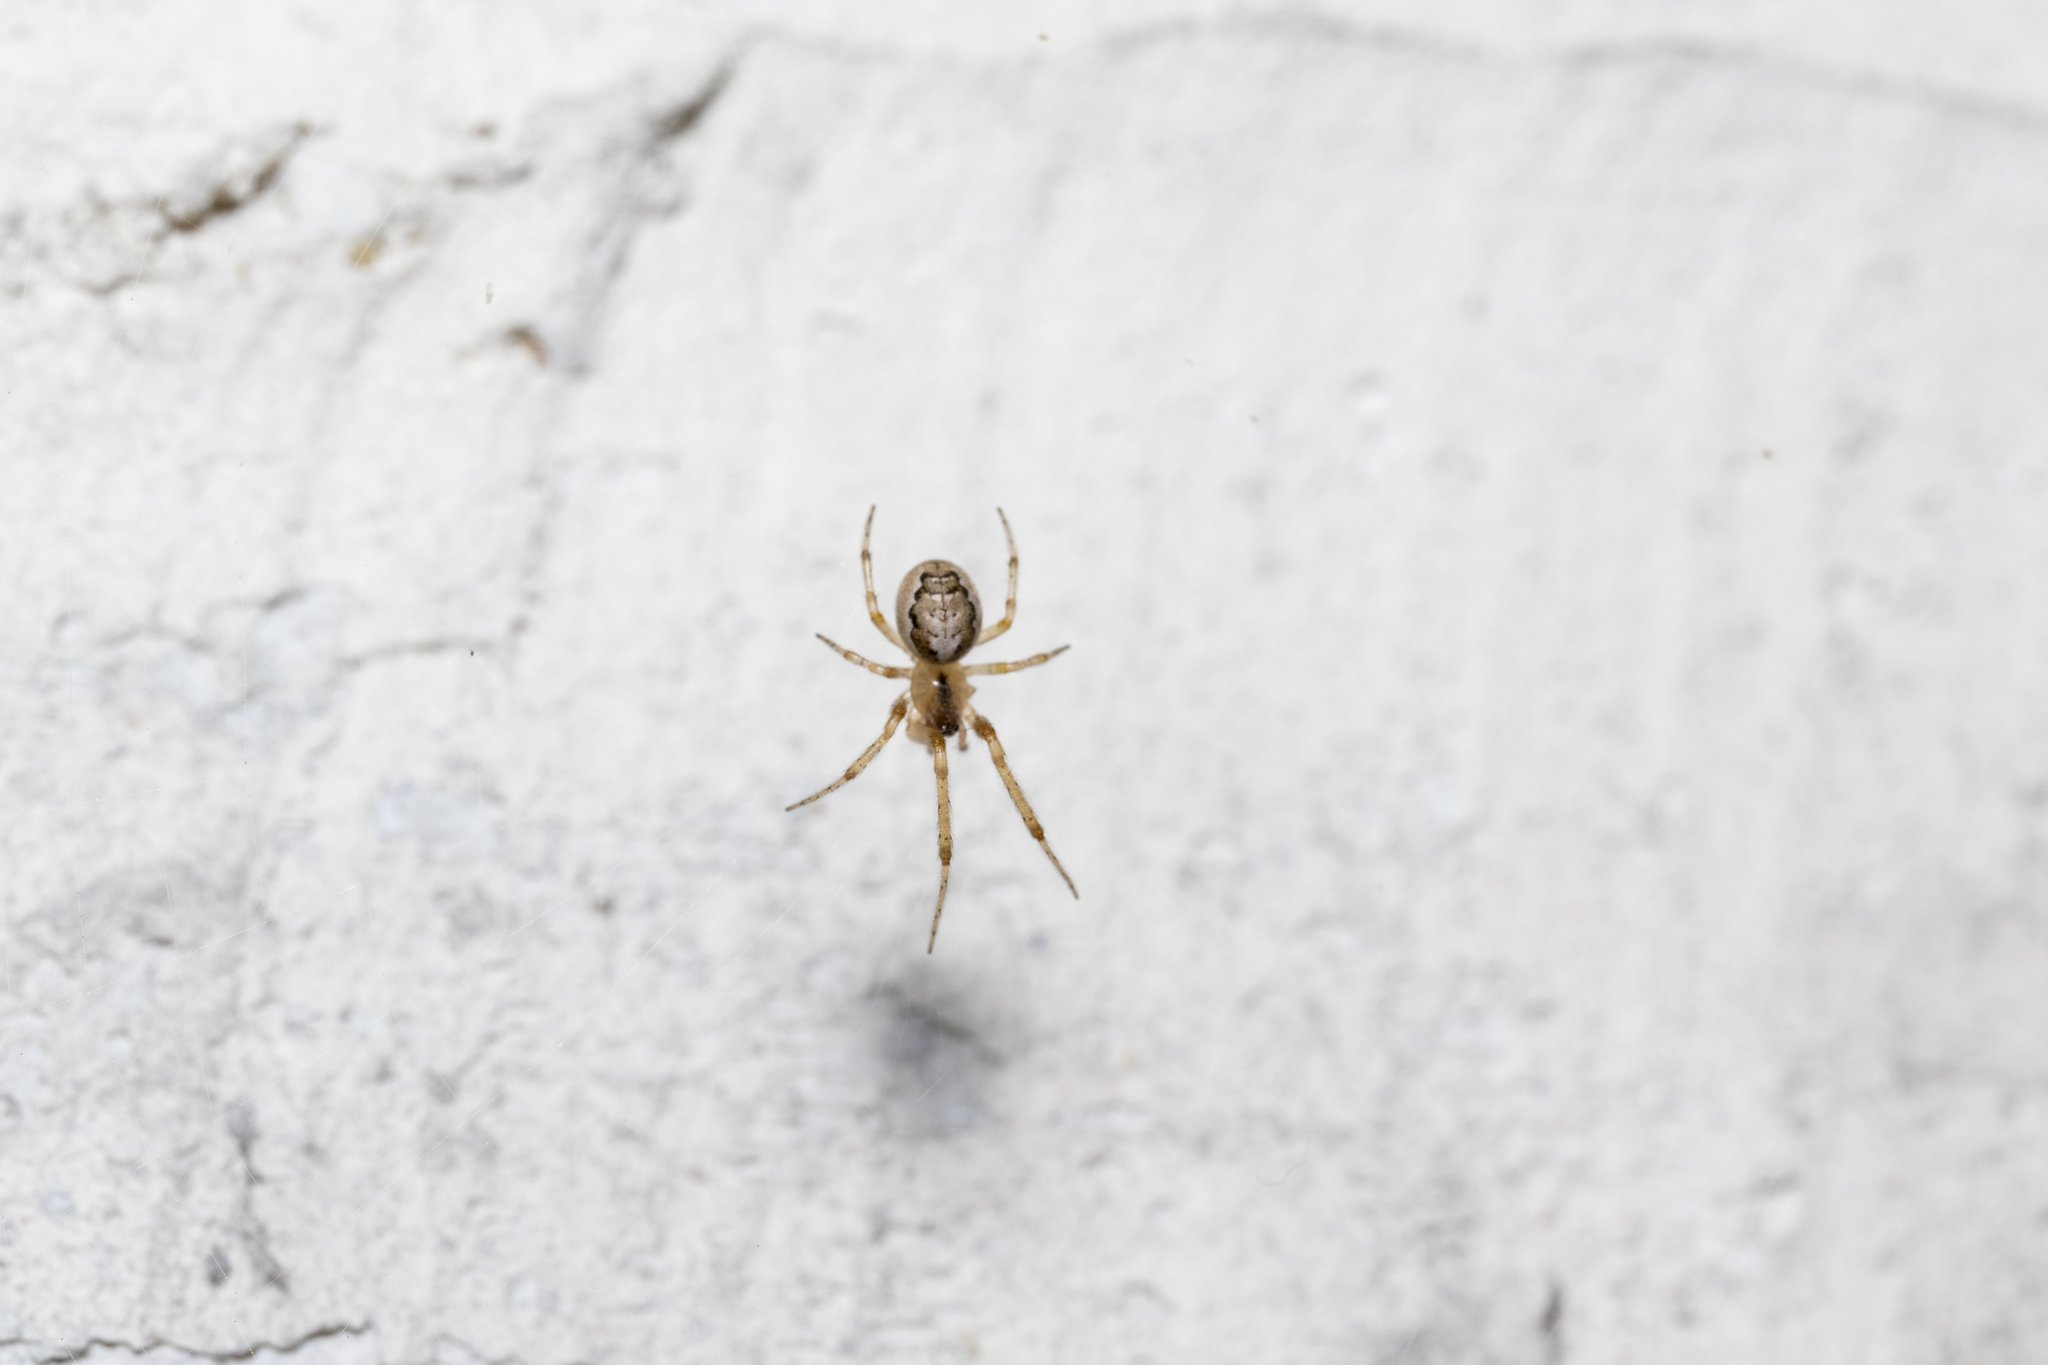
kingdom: Animalia
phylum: Arthropoda
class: Arachnida
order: Araneae
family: Araneidae
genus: Zygiella
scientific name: Zygiella x-notata
